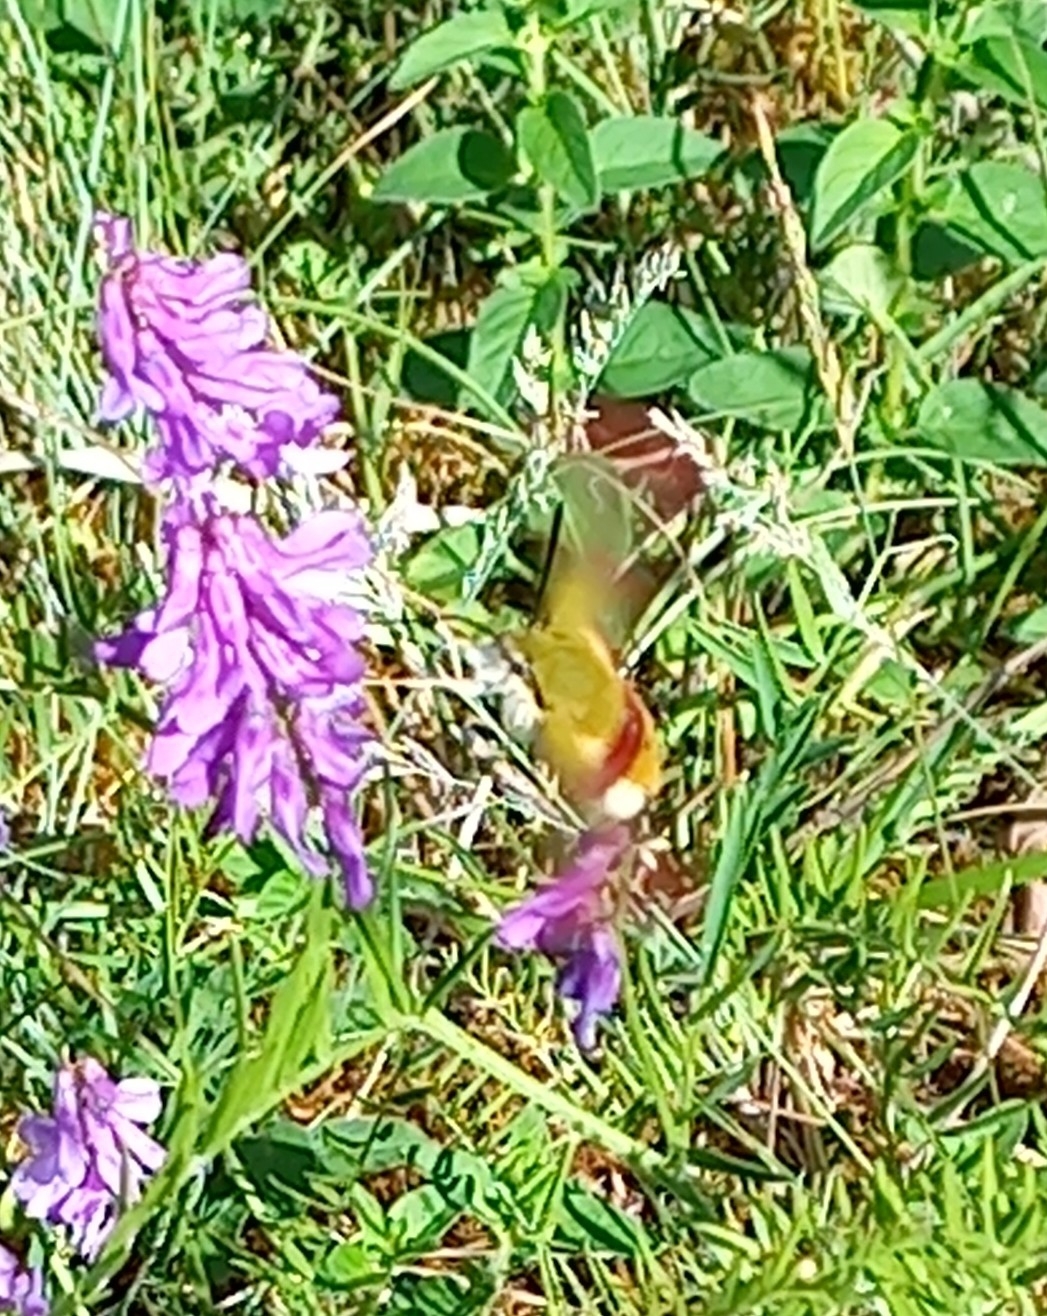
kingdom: Animalia
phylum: Arthropoda
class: Insecta
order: Lepidoptera
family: Sphingidae
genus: Hemaris
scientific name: Hemaris fuciformis
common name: Broad-bordered bee hawk-moth
